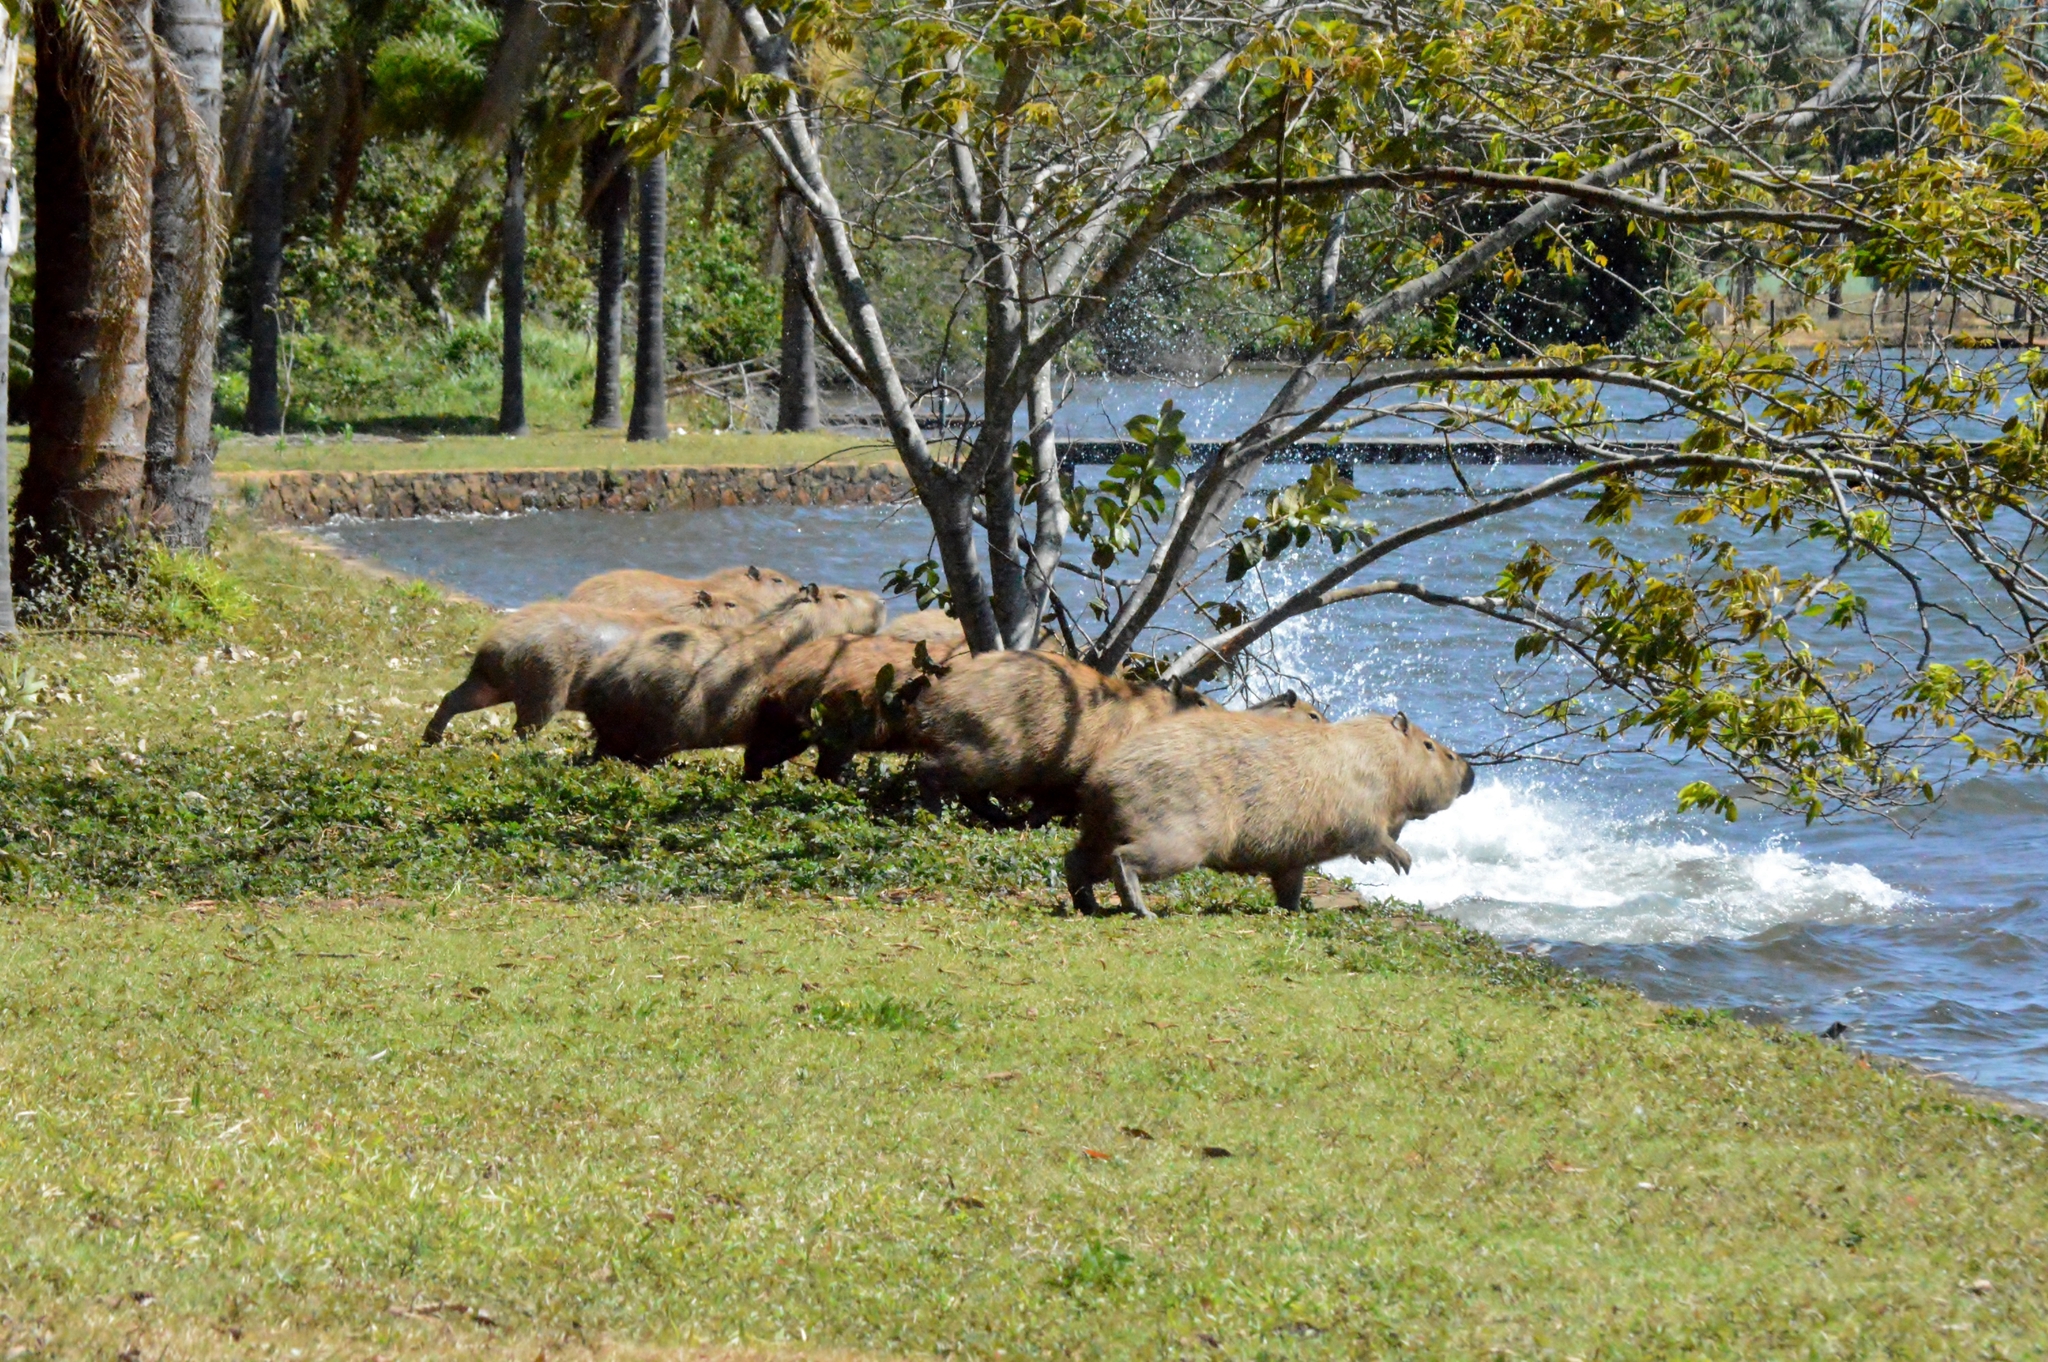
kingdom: Animalia
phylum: Chordata
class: Mammalia
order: Rodentia
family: Caviidae
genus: Hydrochoerus
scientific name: Hydrochoerus hydrochaeris
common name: Capybara
